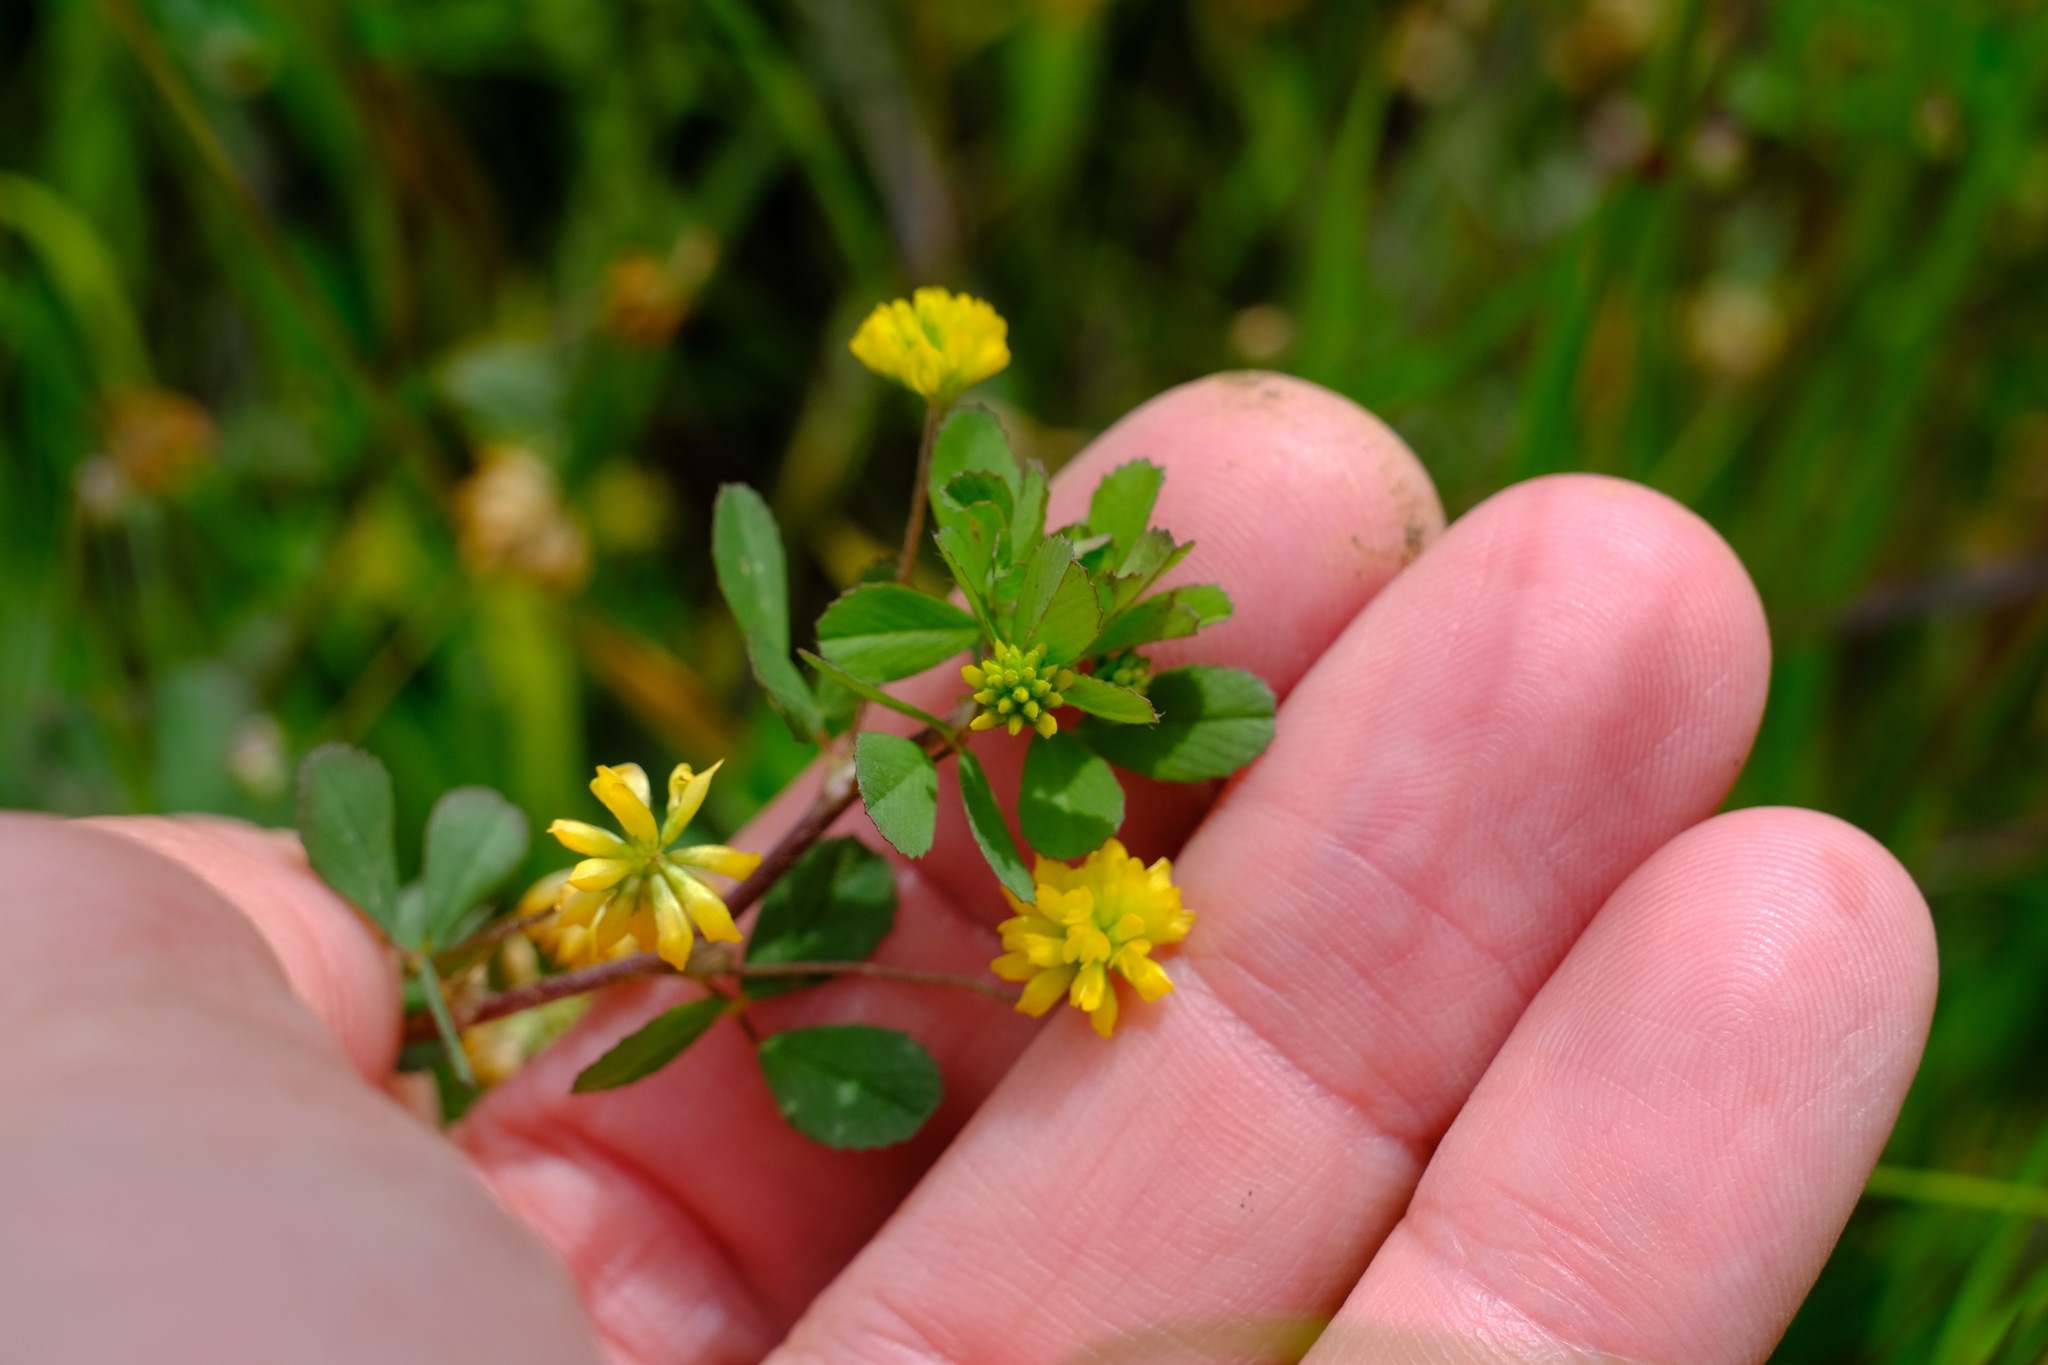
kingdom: Plantae
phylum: Tracheophyta
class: Magnoliopsida
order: Fabales
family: Fabaceae
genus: Trifolium
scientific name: Trifolium dubium
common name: Suckling clover
